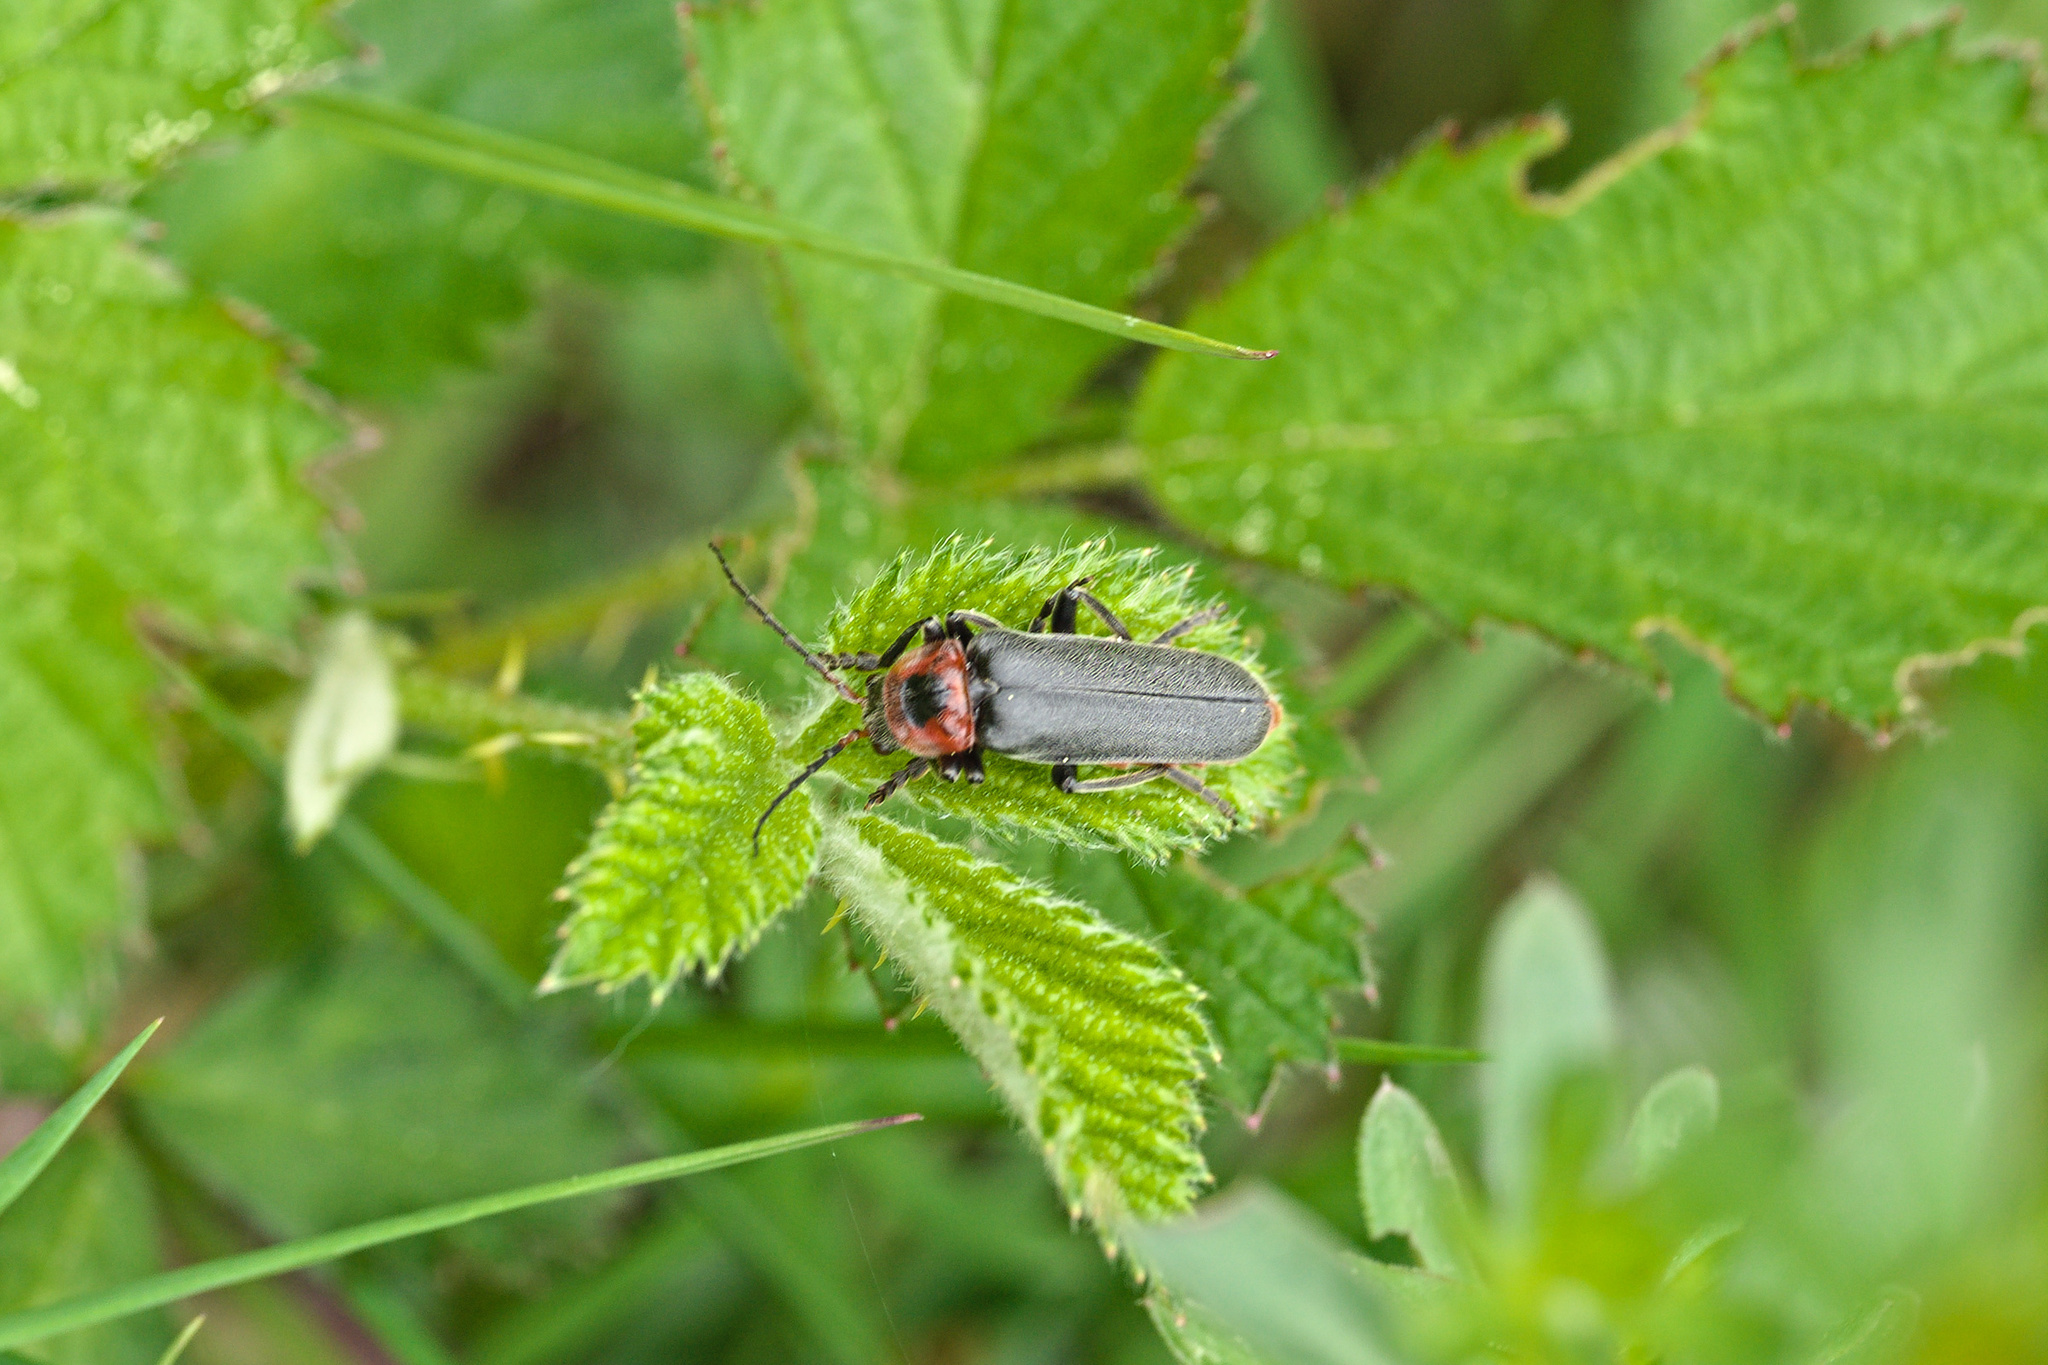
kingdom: Animalia
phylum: Arthropoda
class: Insecta
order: Coleoptera
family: Cantharidae
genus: Cantharis
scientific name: Cantharis rustica
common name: Soldier beetle
